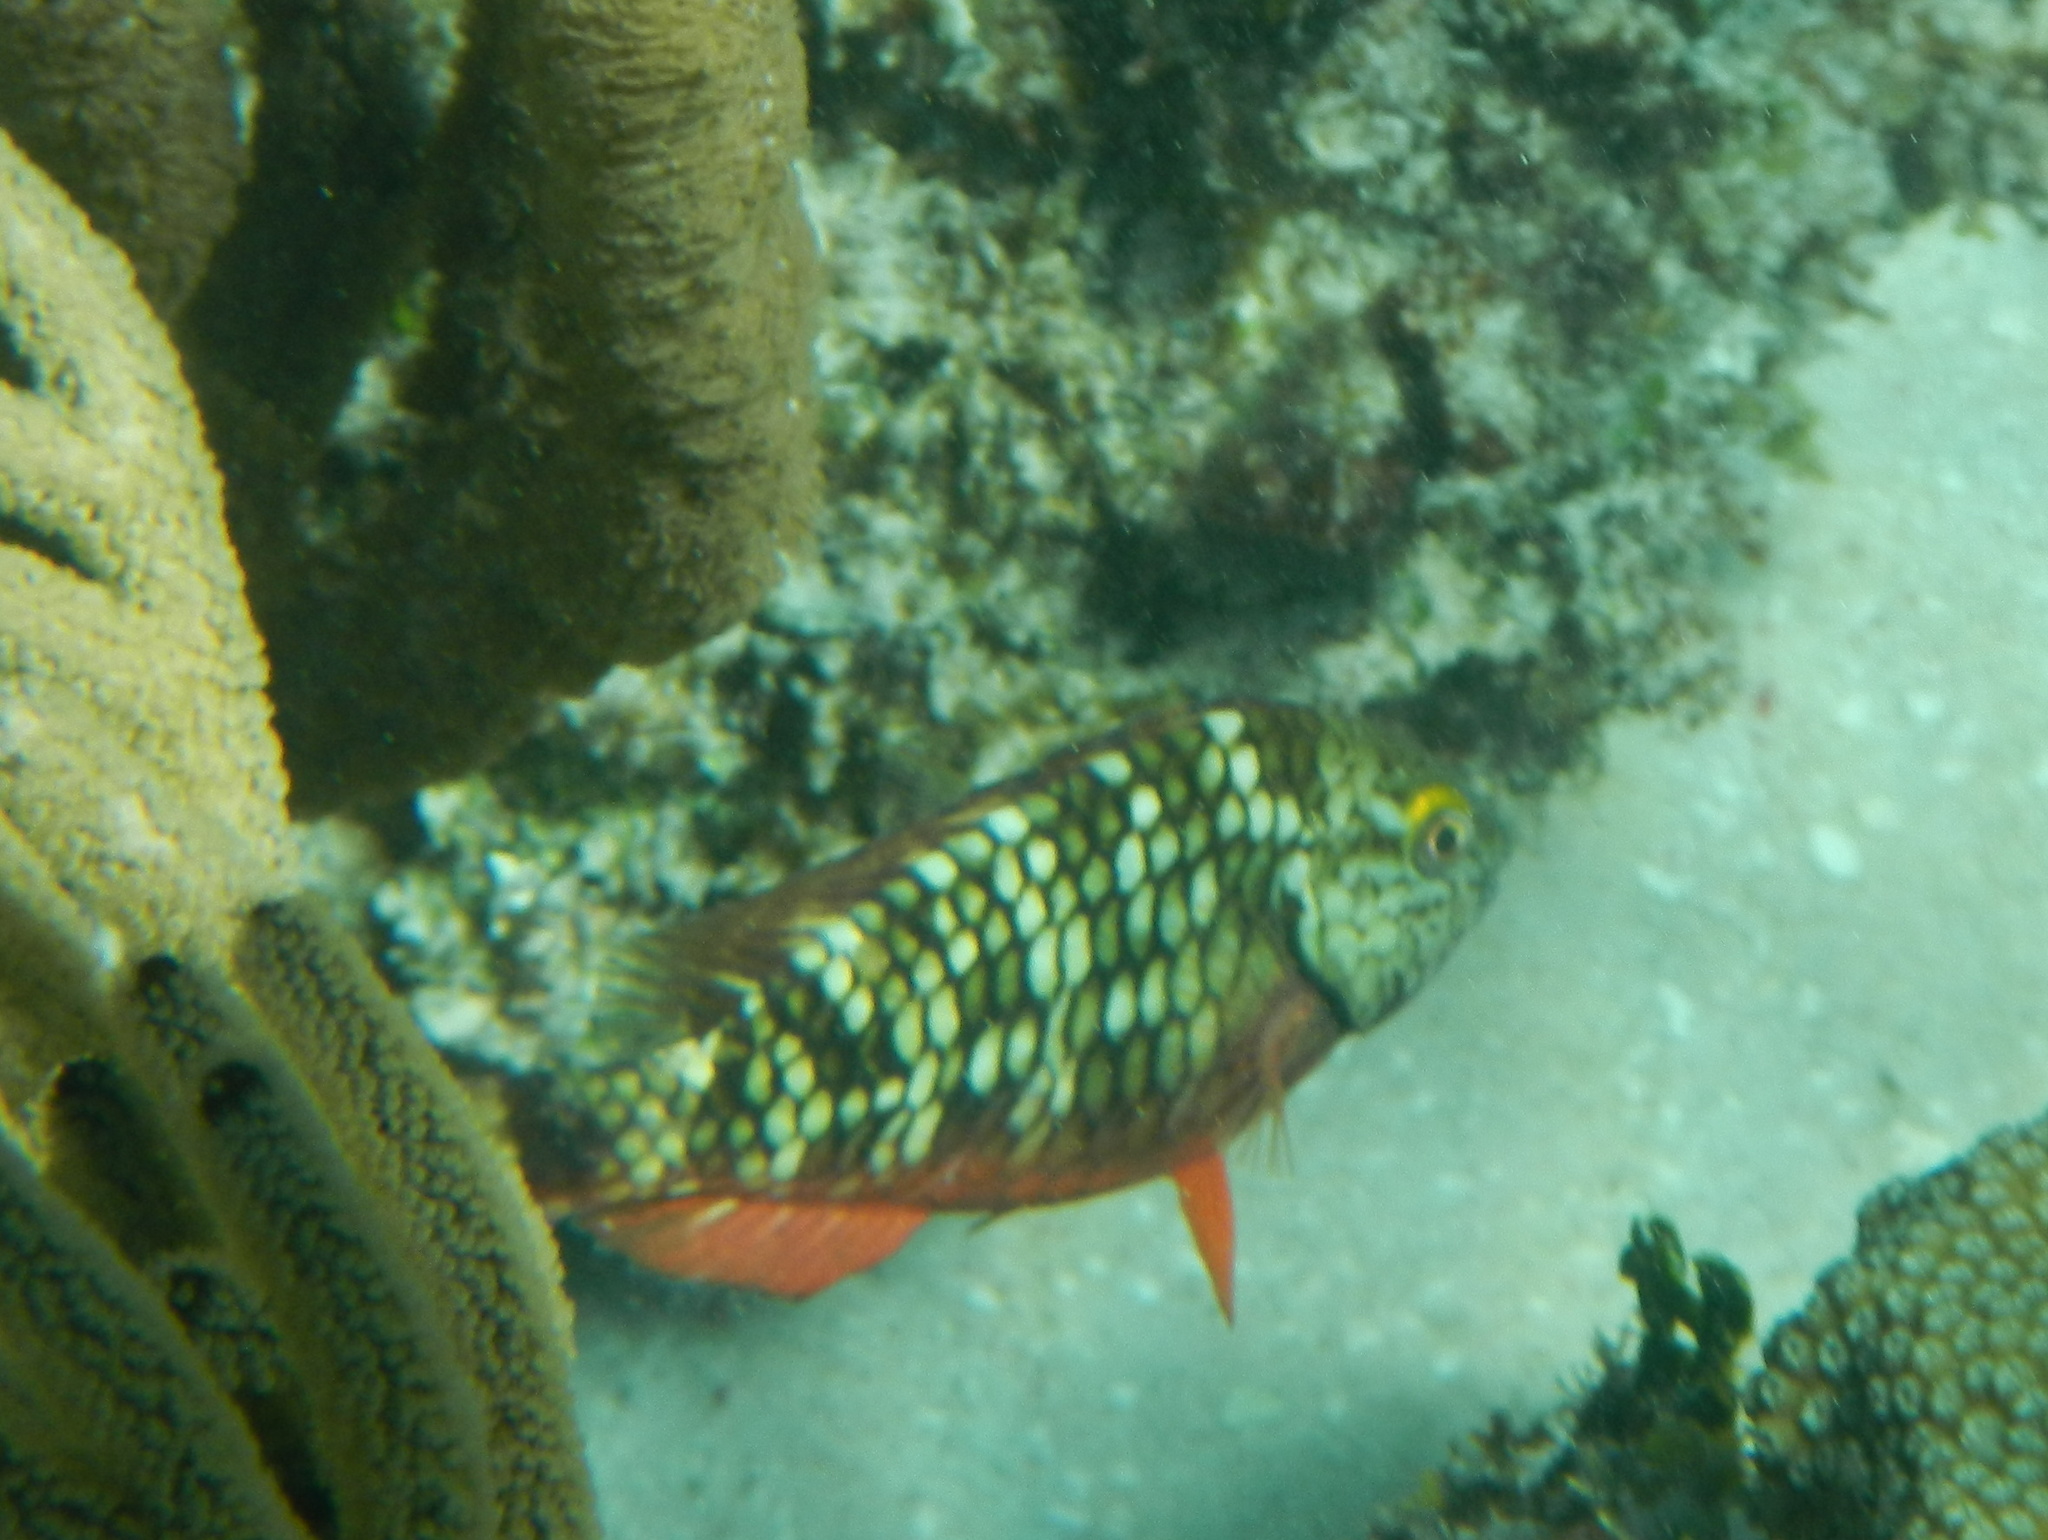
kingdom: Animalia
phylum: Chordata
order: Perciformes
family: Scaridae
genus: Sparisoma
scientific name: Sparisoma viride
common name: Stoplight parrotfish
